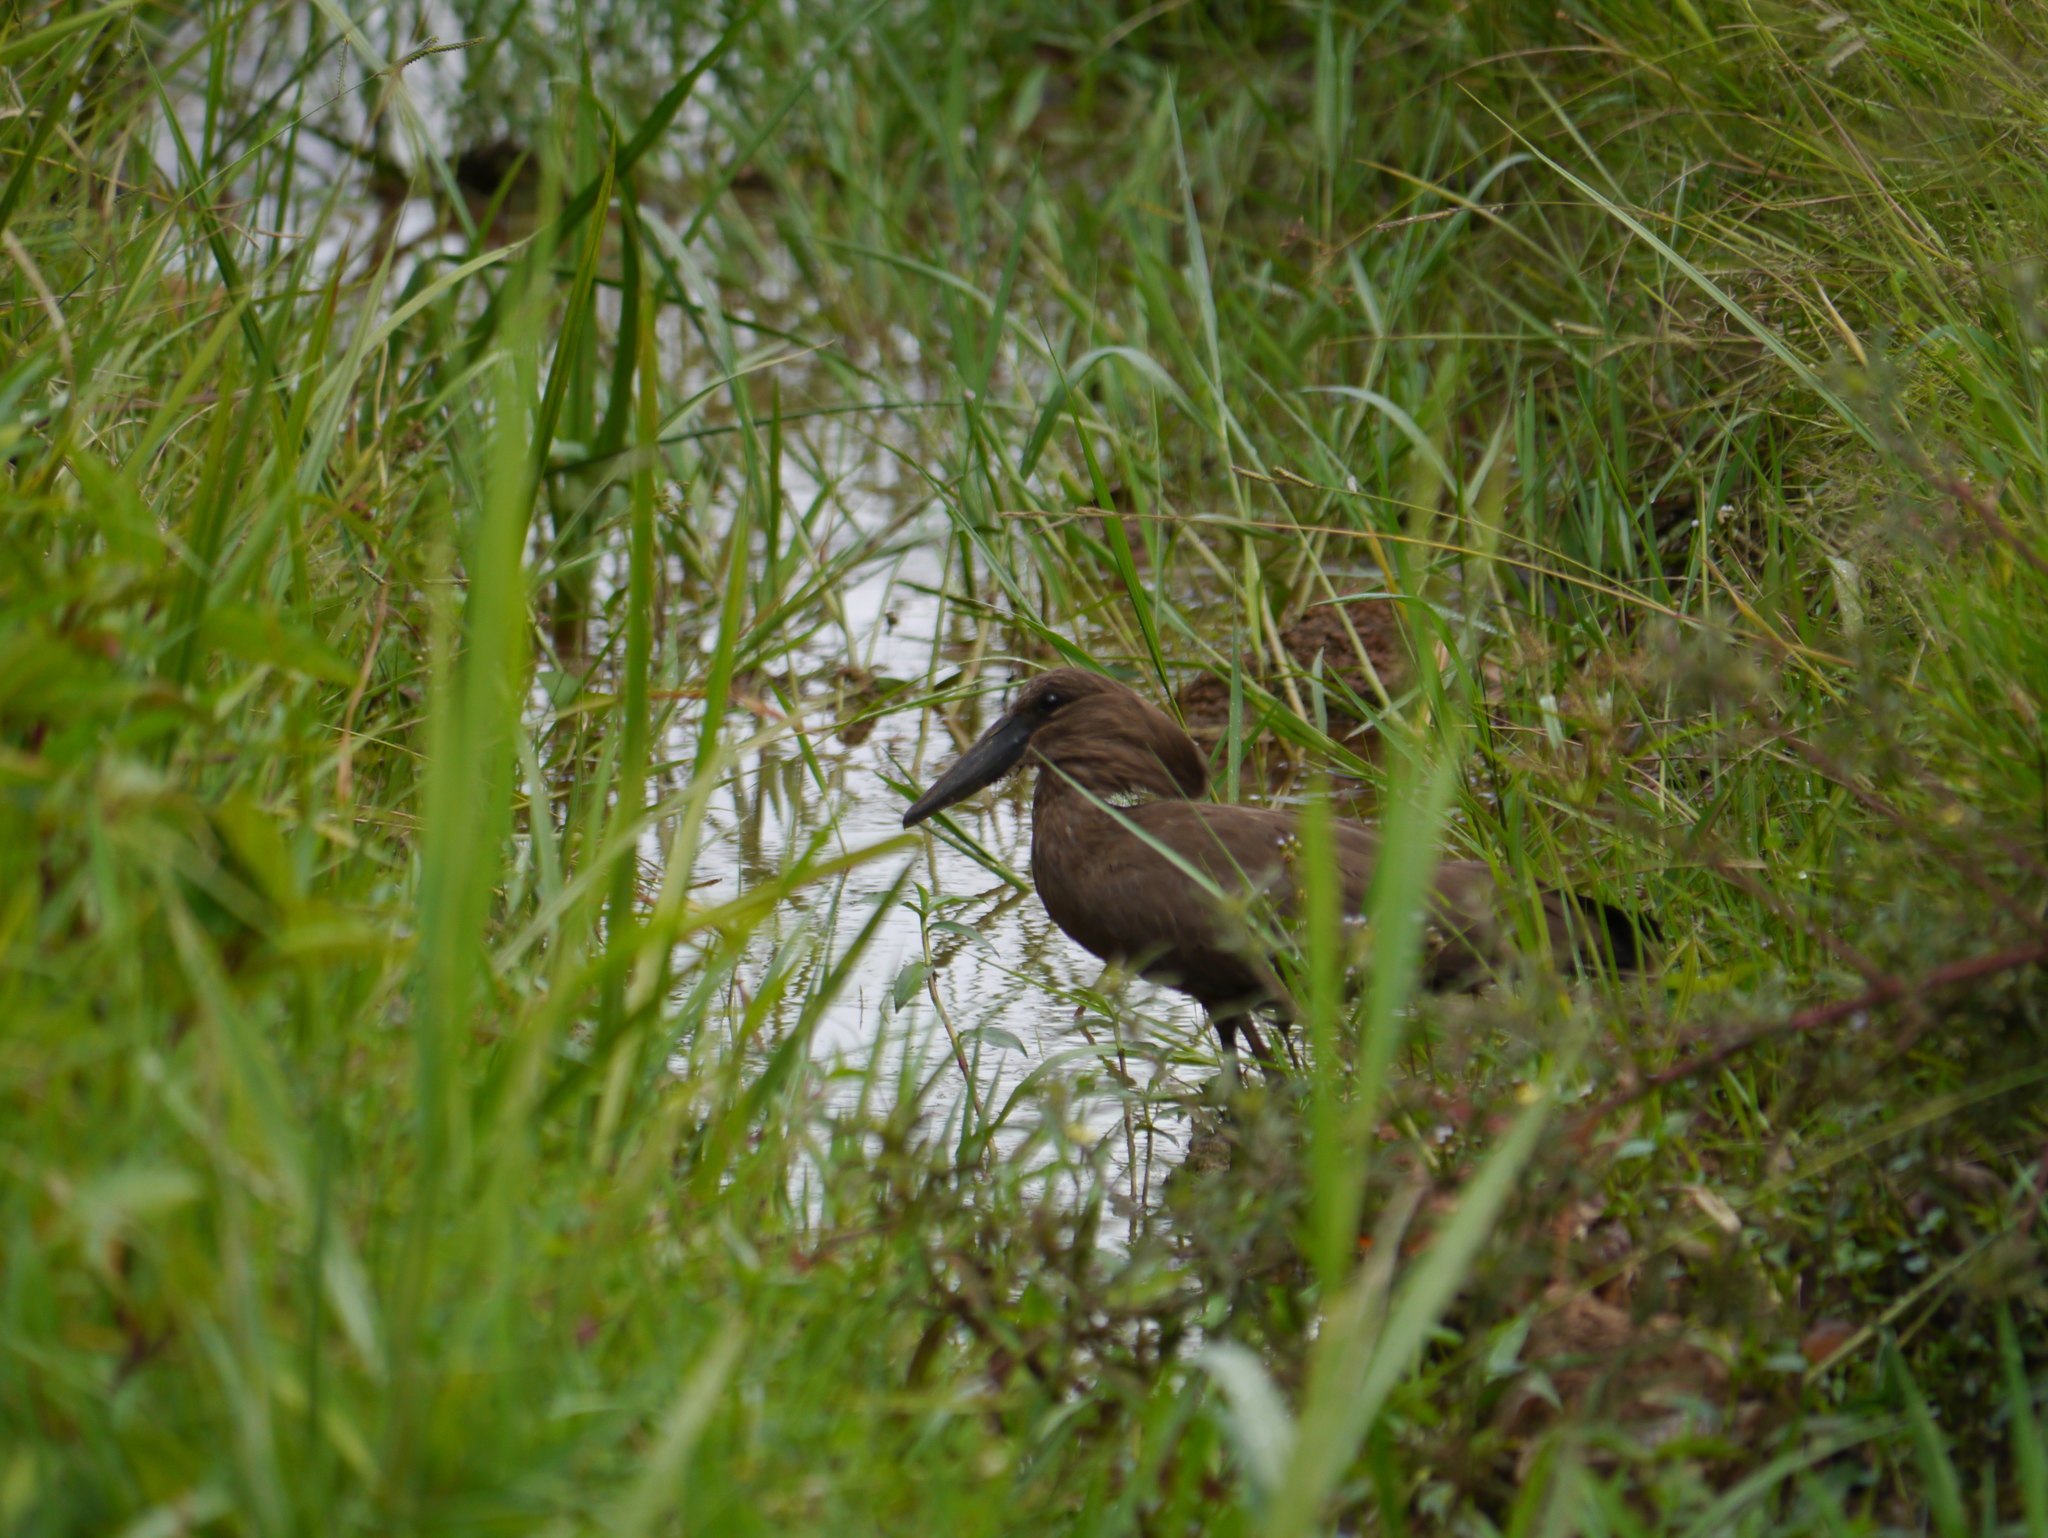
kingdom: Animalia
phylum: Chordata
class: Aves
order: Pelecaniformes
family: Scopidae
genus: Scopus
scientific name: Scopus umbretta
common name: Hamerkop
